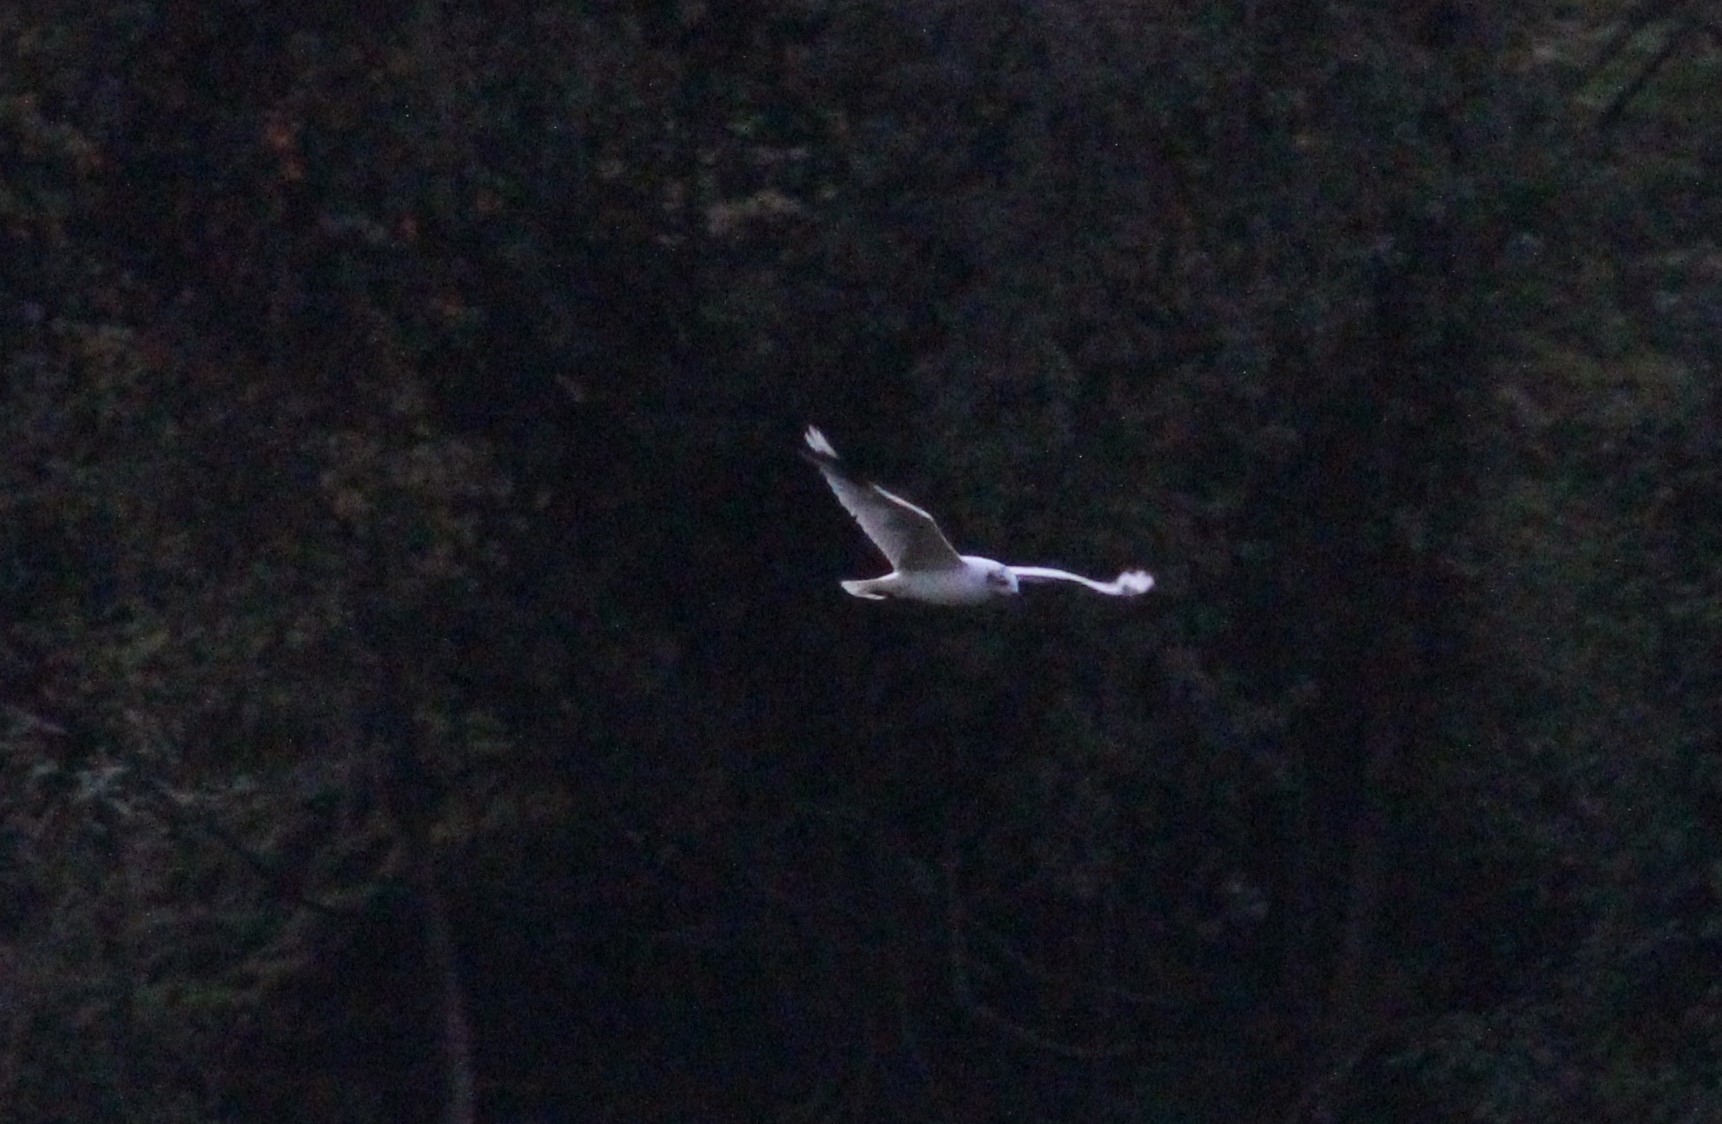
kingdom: Animalia
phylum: Chordata
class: Aves
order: Charadriiformes
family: Laridae
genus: Chroicocephalus
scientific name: Chroicocephalus serranus
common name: Andean gull
